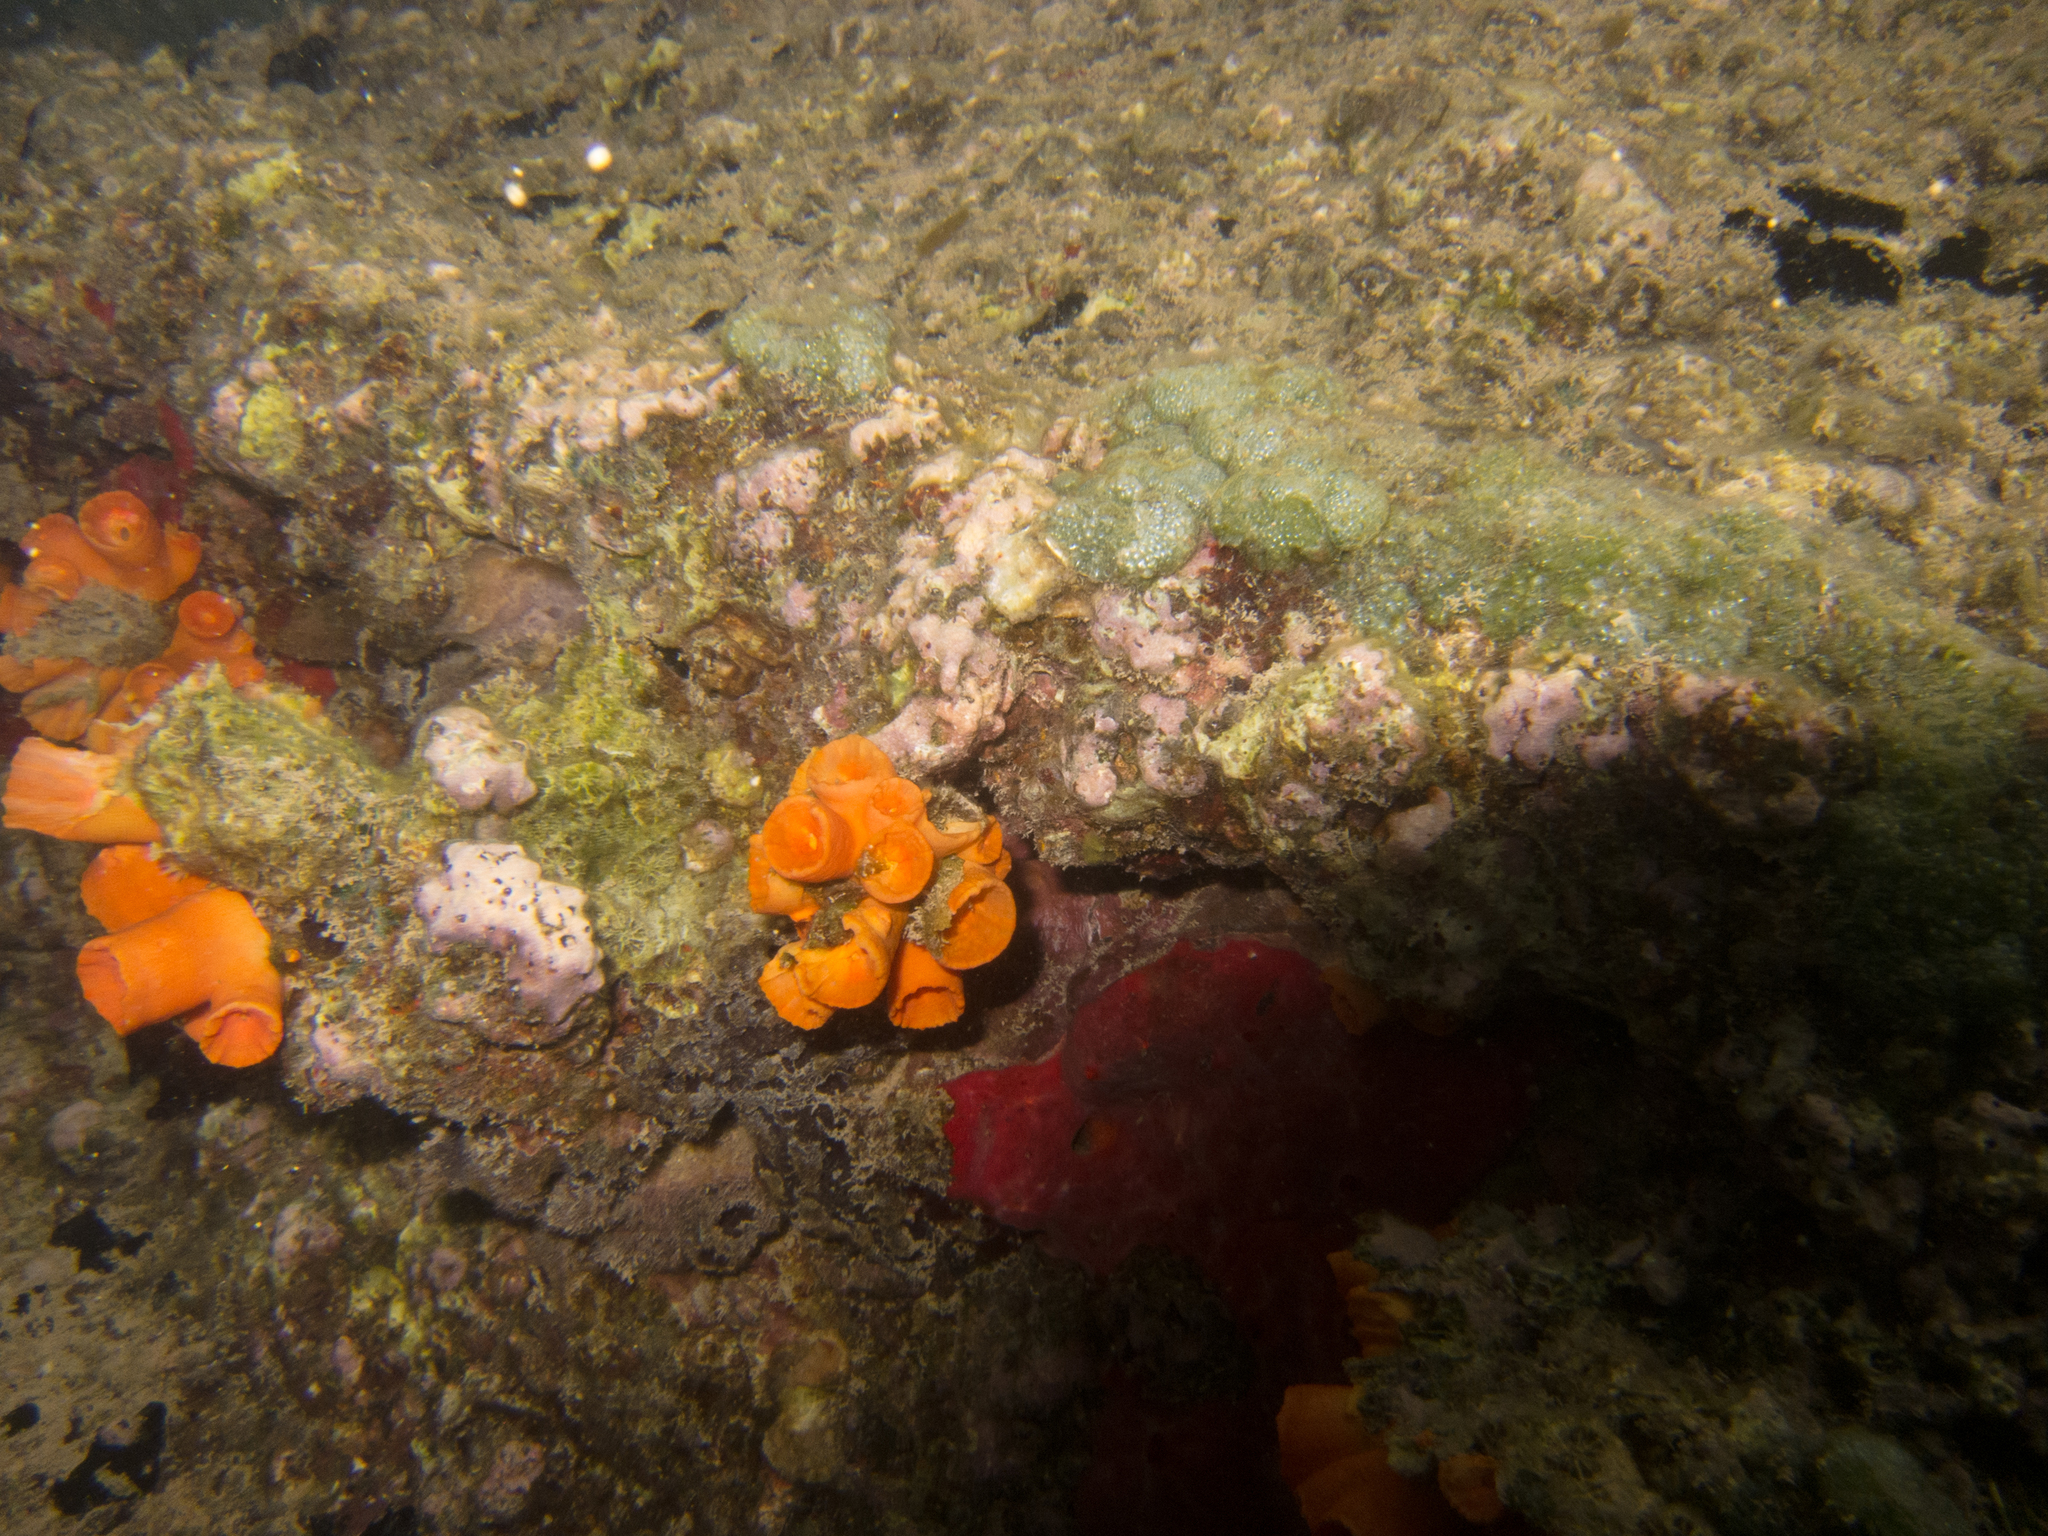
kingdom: Animalia
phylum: Cnidaria
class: Anthozoa
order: Scleractinia
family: Dendrophylliidae
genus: Tubastraea
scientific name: Tubastraea coccinea
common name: Orange cup coral
